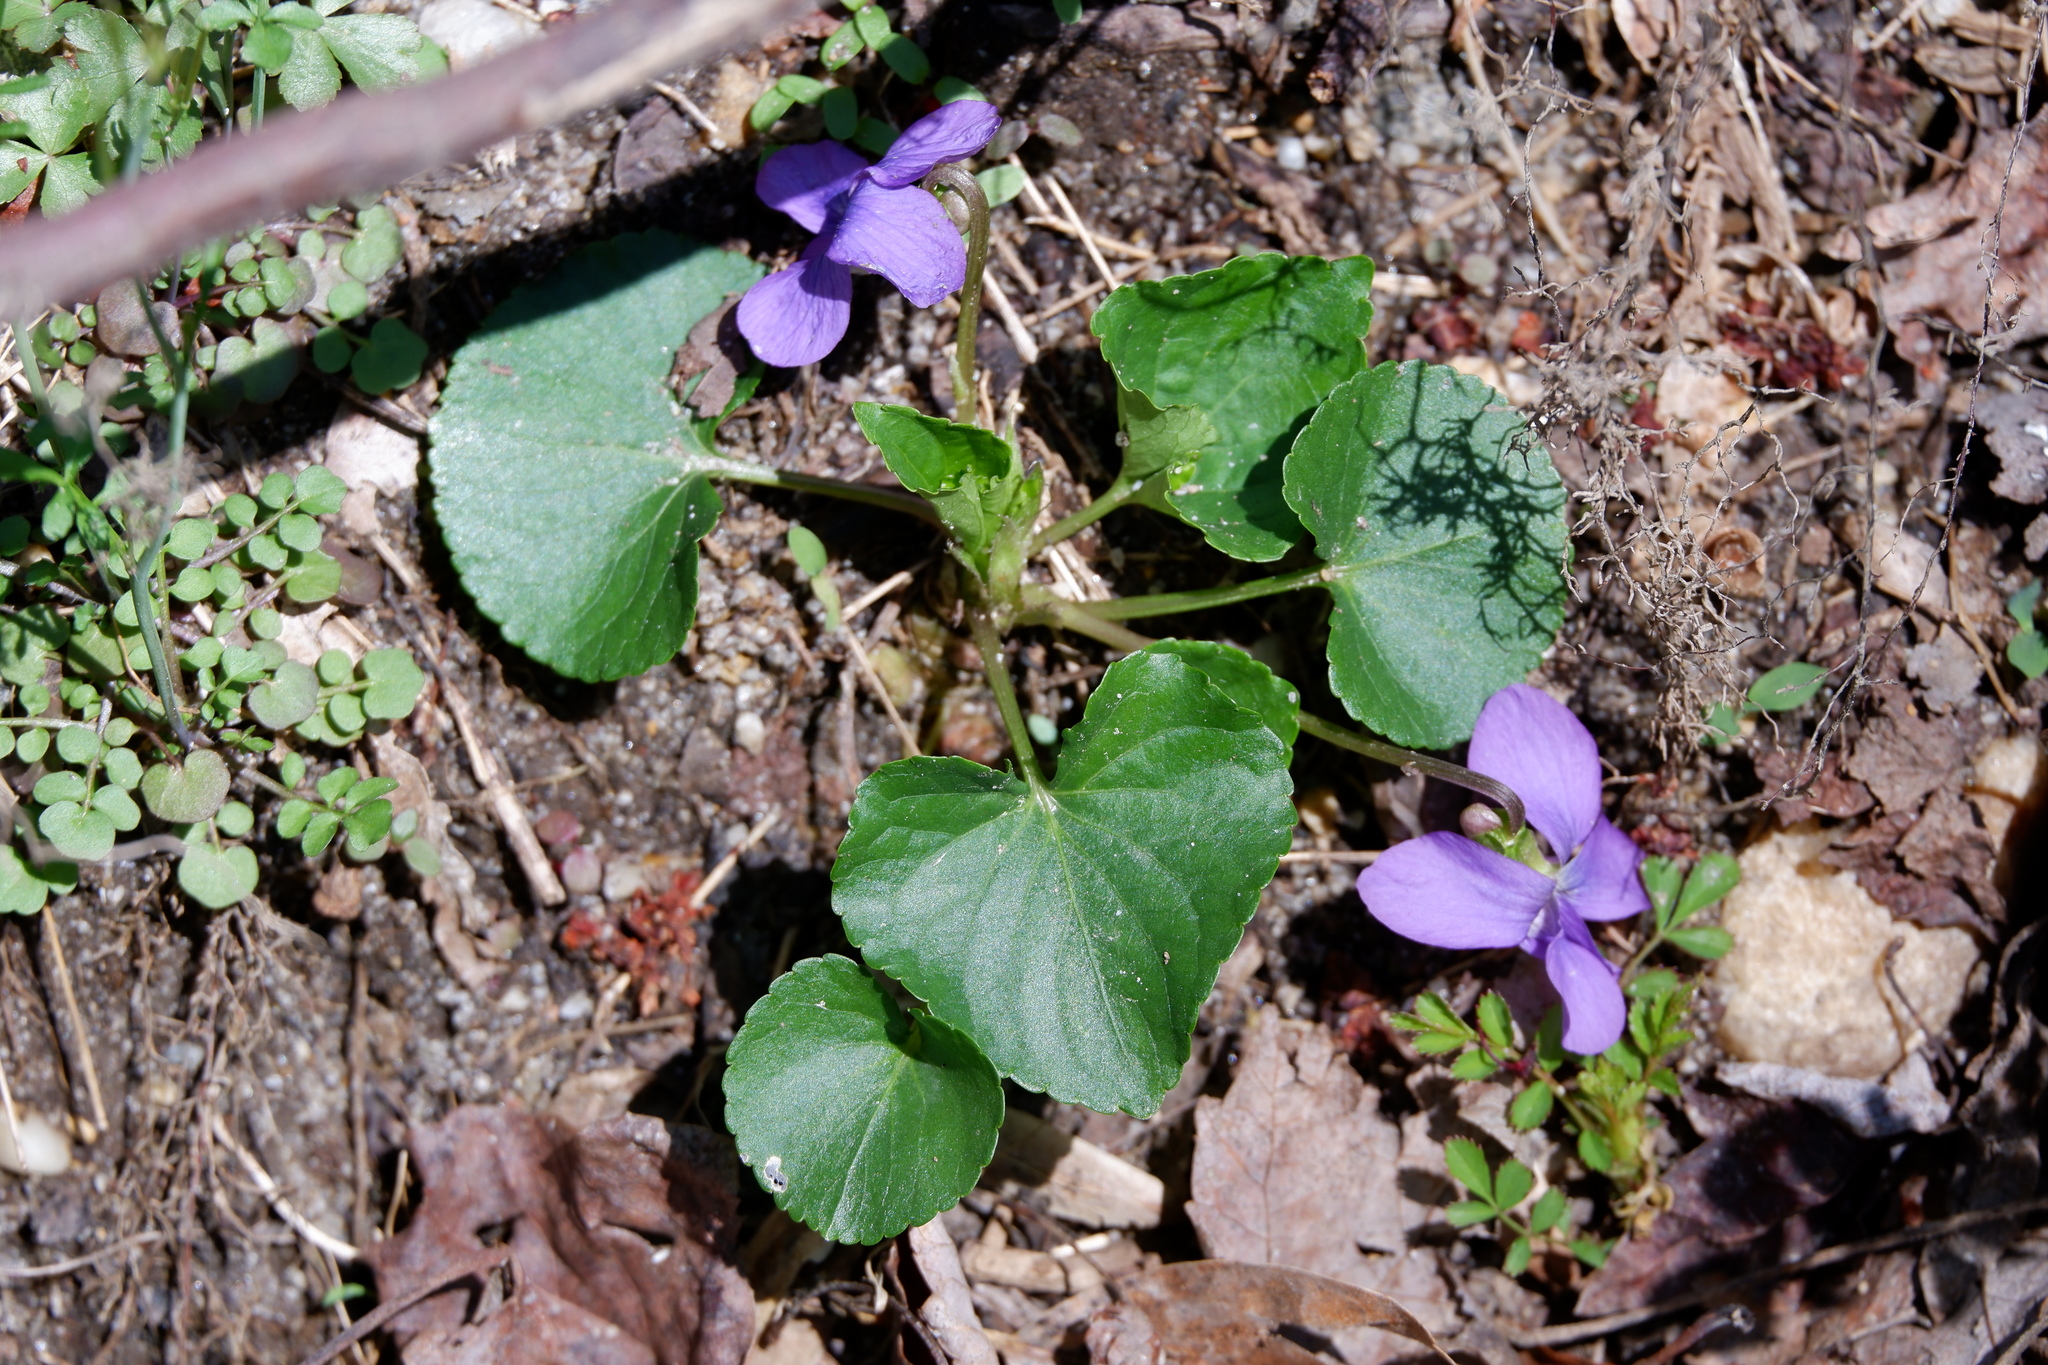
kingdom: Plantae
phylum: Tracheophyta
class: Magnoliopsida
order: Malpighiales
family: Violaceae
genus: Viola
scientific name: Viola communis
